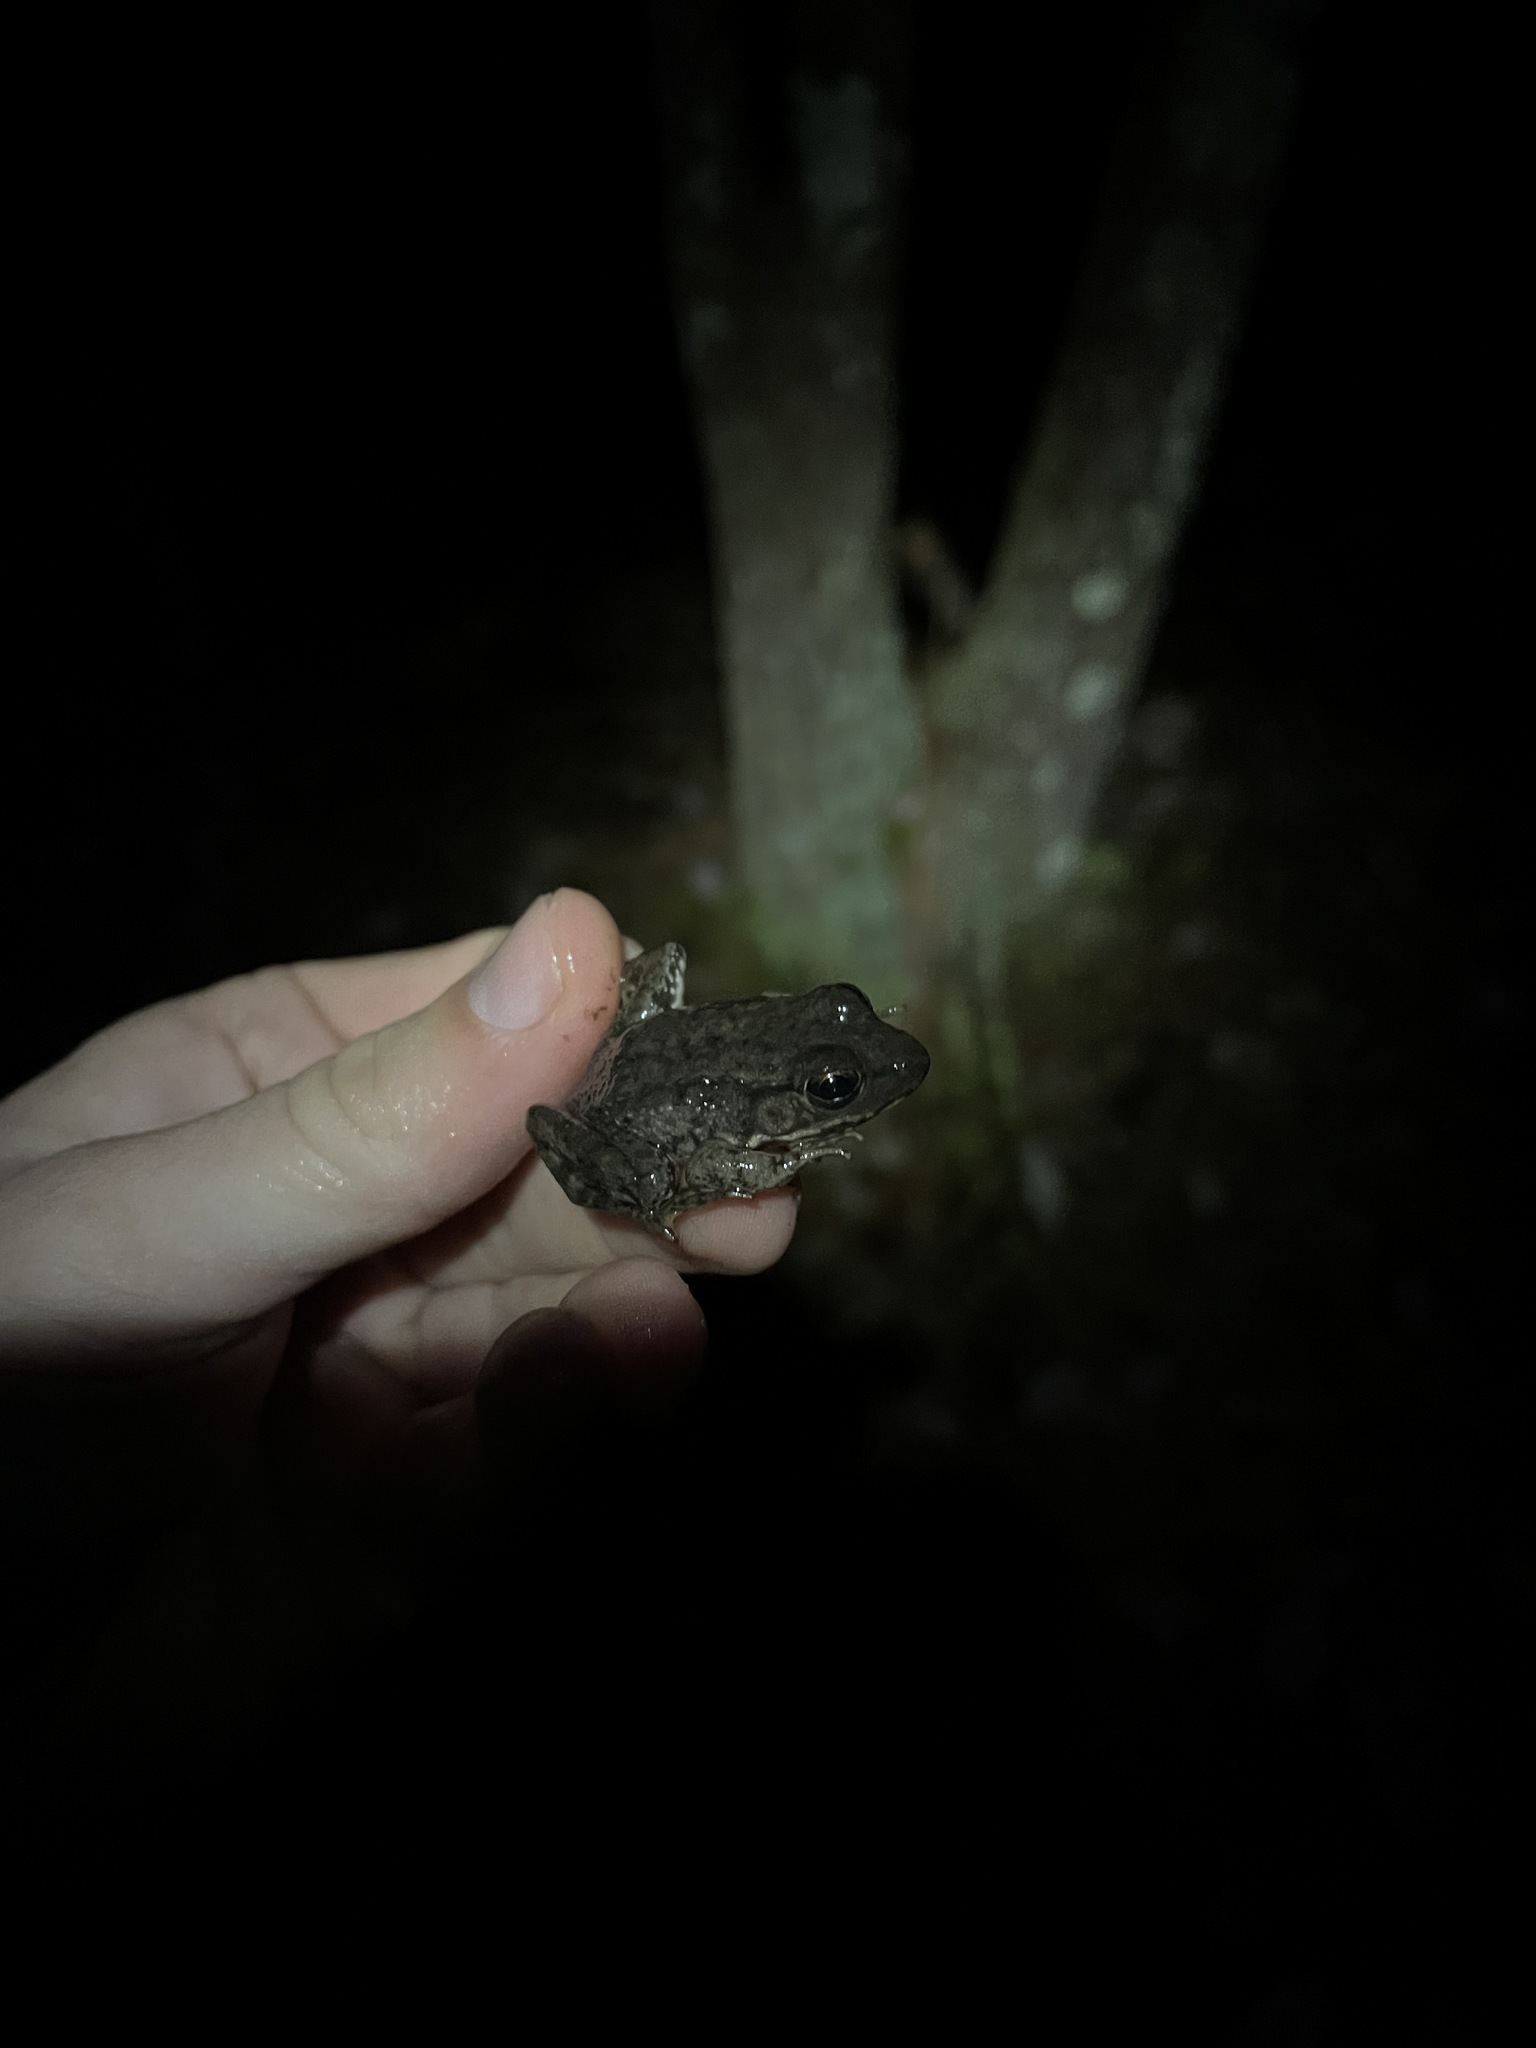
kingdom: Animalia
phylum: Chordata
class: Amphibia
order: Anura
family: Ranidae
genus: Lithobates
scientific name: Lithobates clamitans
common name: Green frog
